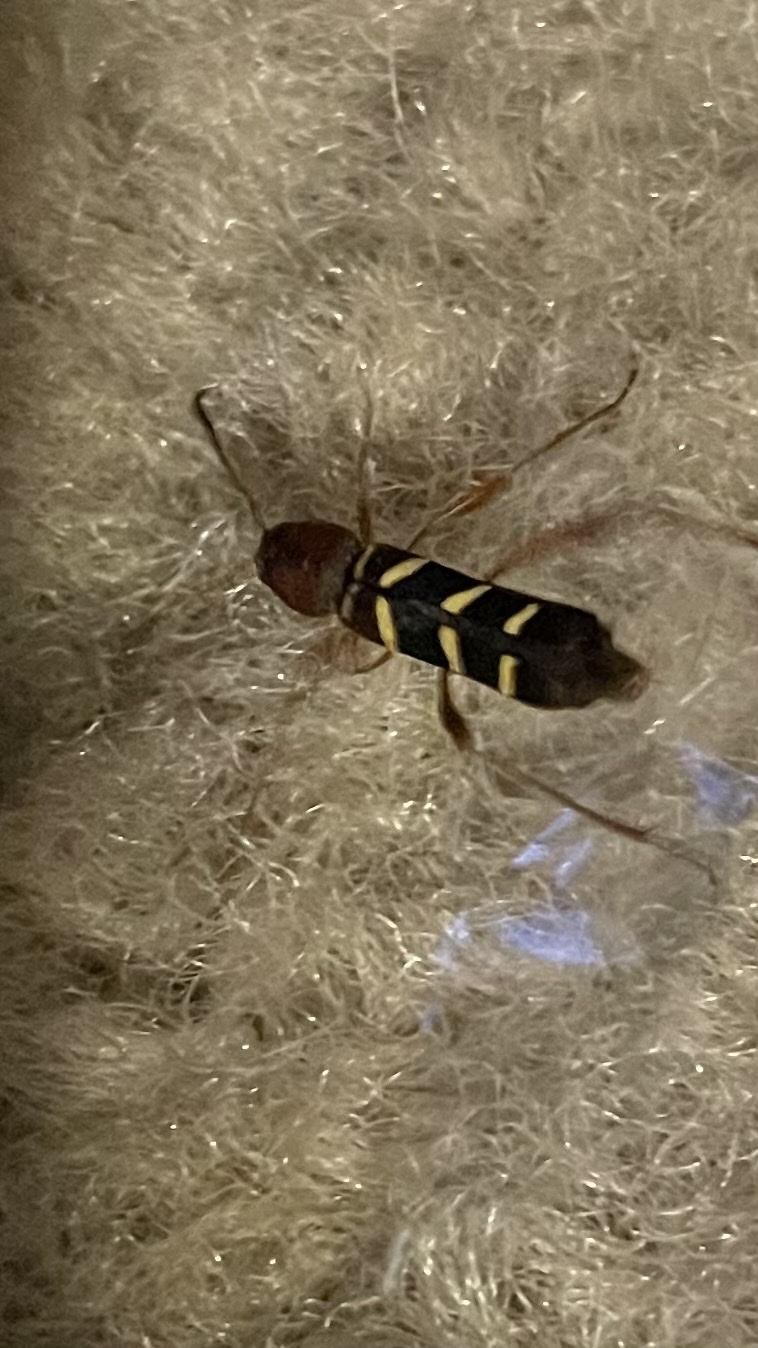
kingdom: Animalia
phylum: Arthropoda
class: Insecta
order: Coleoptera
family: Cerambycidae
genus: Neoclytus
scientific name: Neoclytus acuminatus
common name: Read-headed ash borer
